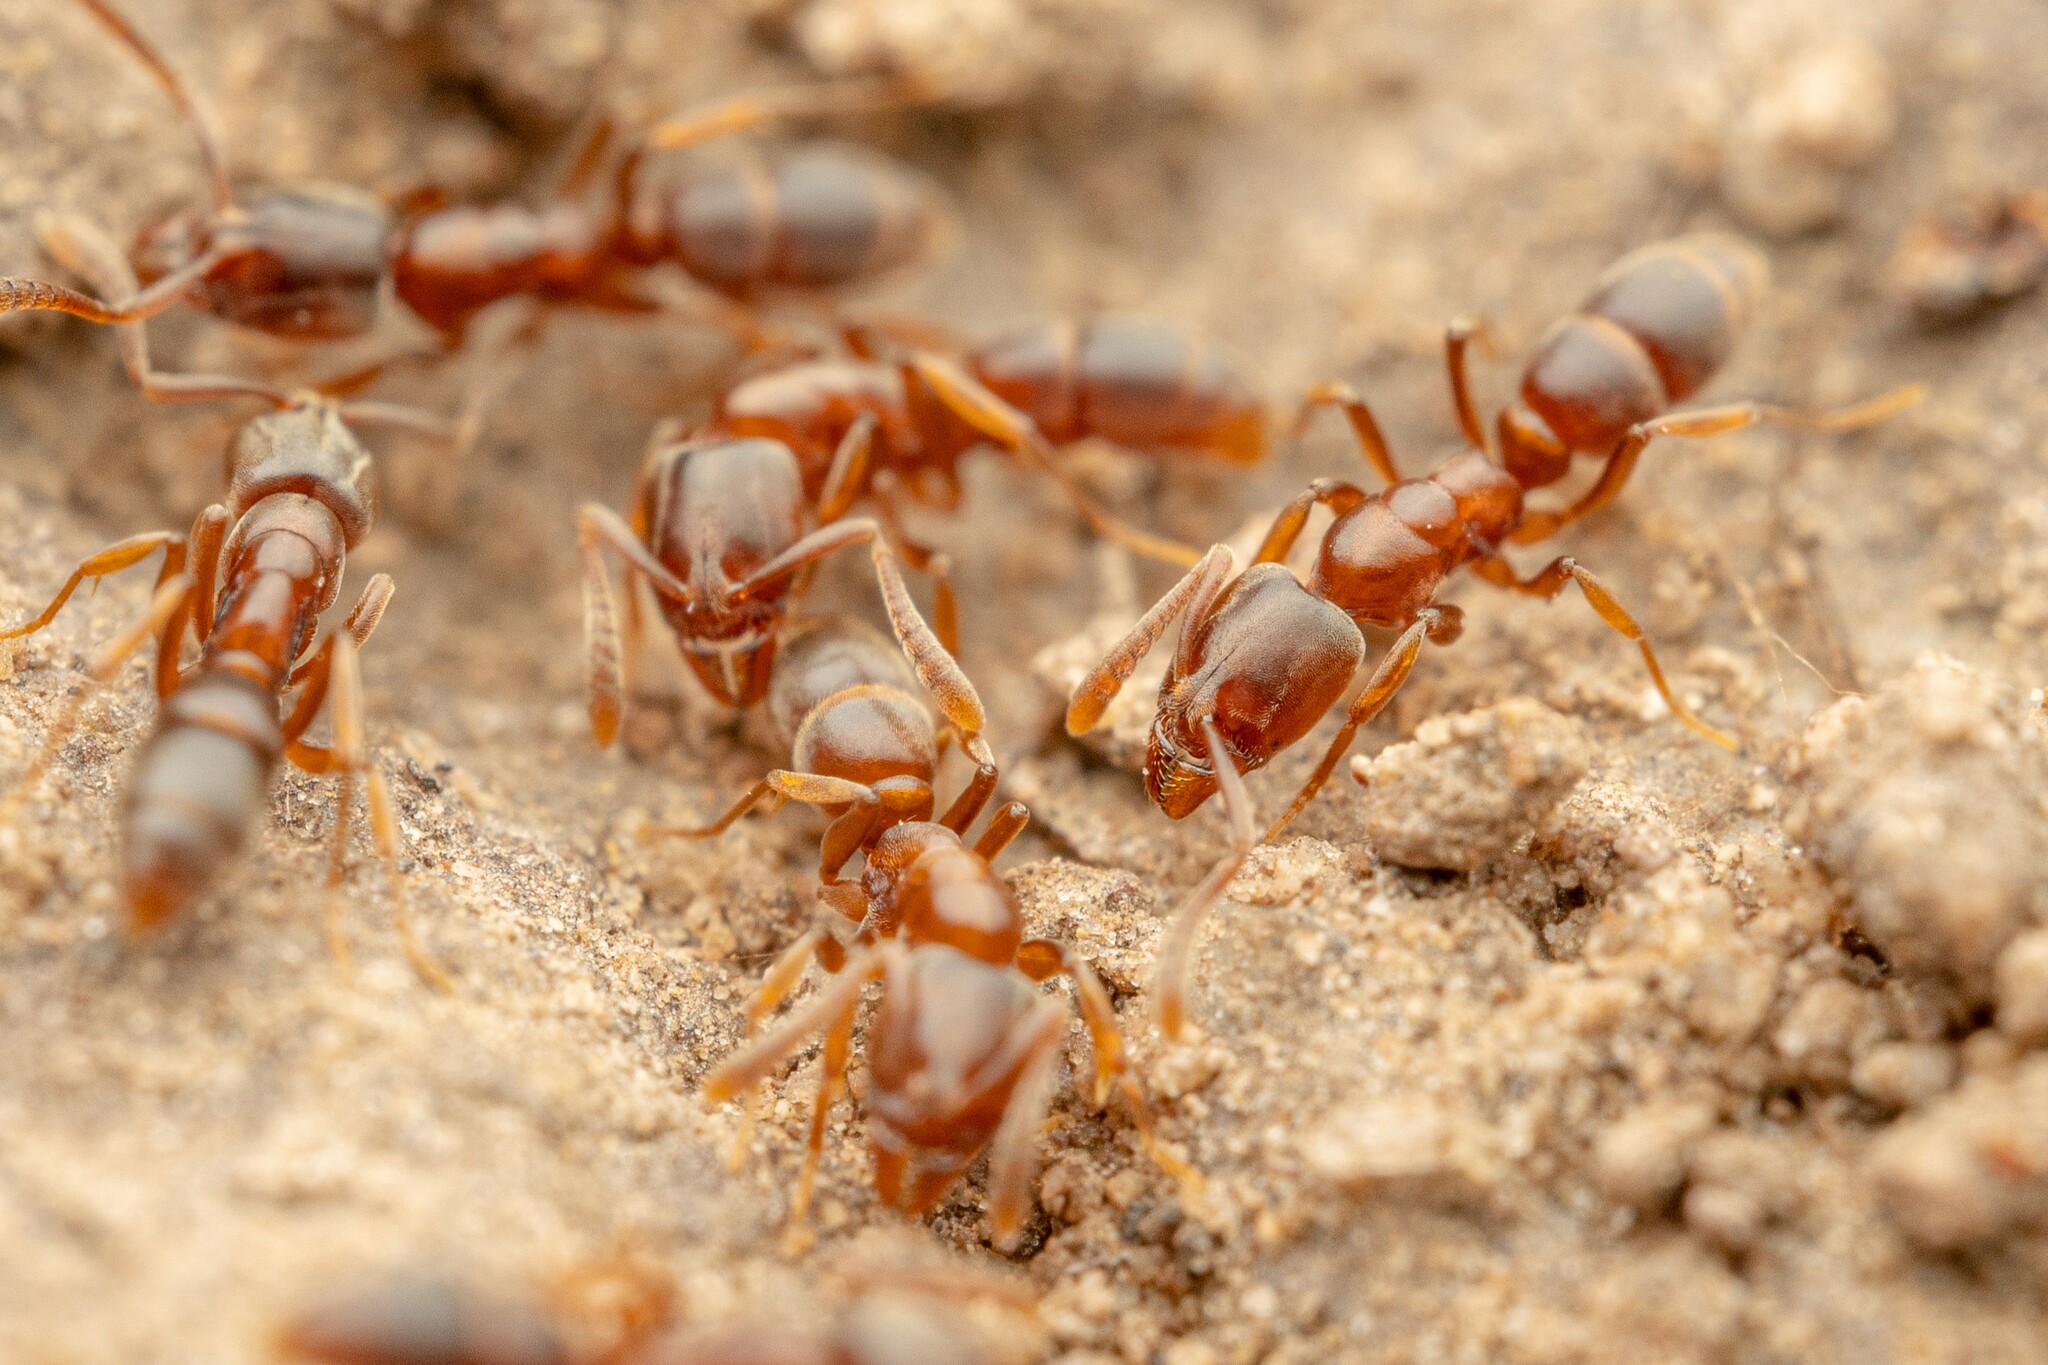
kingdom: Animalia
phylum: Arthropoda
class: Insecta
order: Hymenoptera
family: Formicidae
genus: Hypoponera
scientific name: Hypoponera opacior
